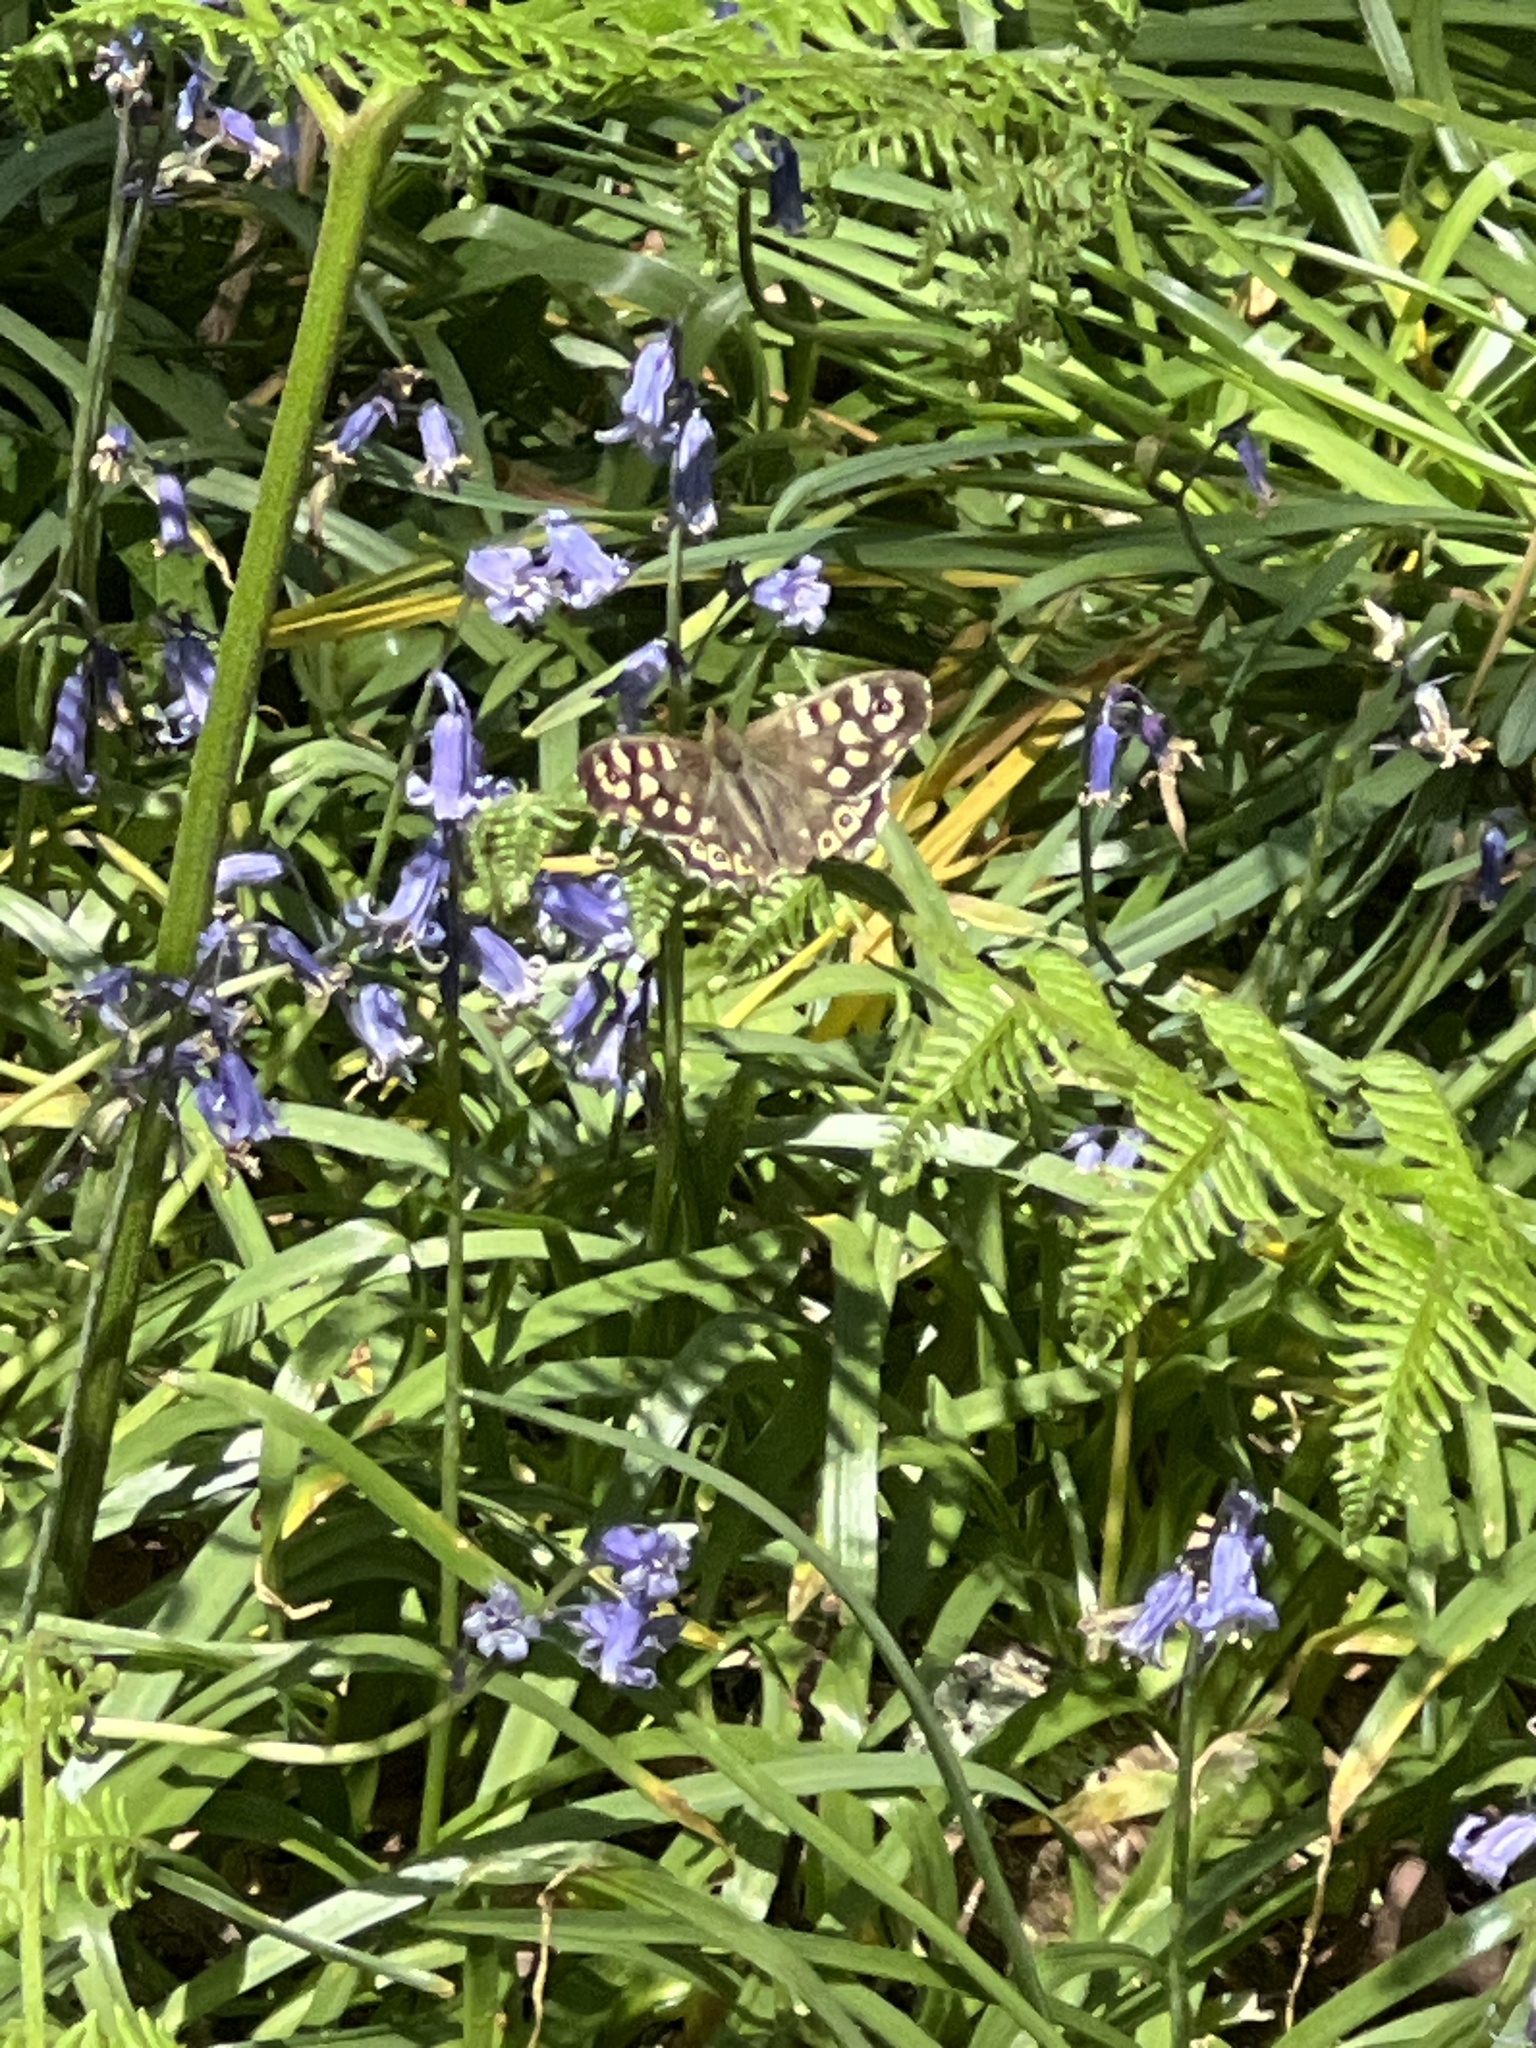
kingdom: Animalia
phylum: Arthropoda
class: Insecta
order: Lepidoptera
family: Nymphalidae
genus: Pararge
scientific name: Pararge aegeria
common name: Speckled wood
